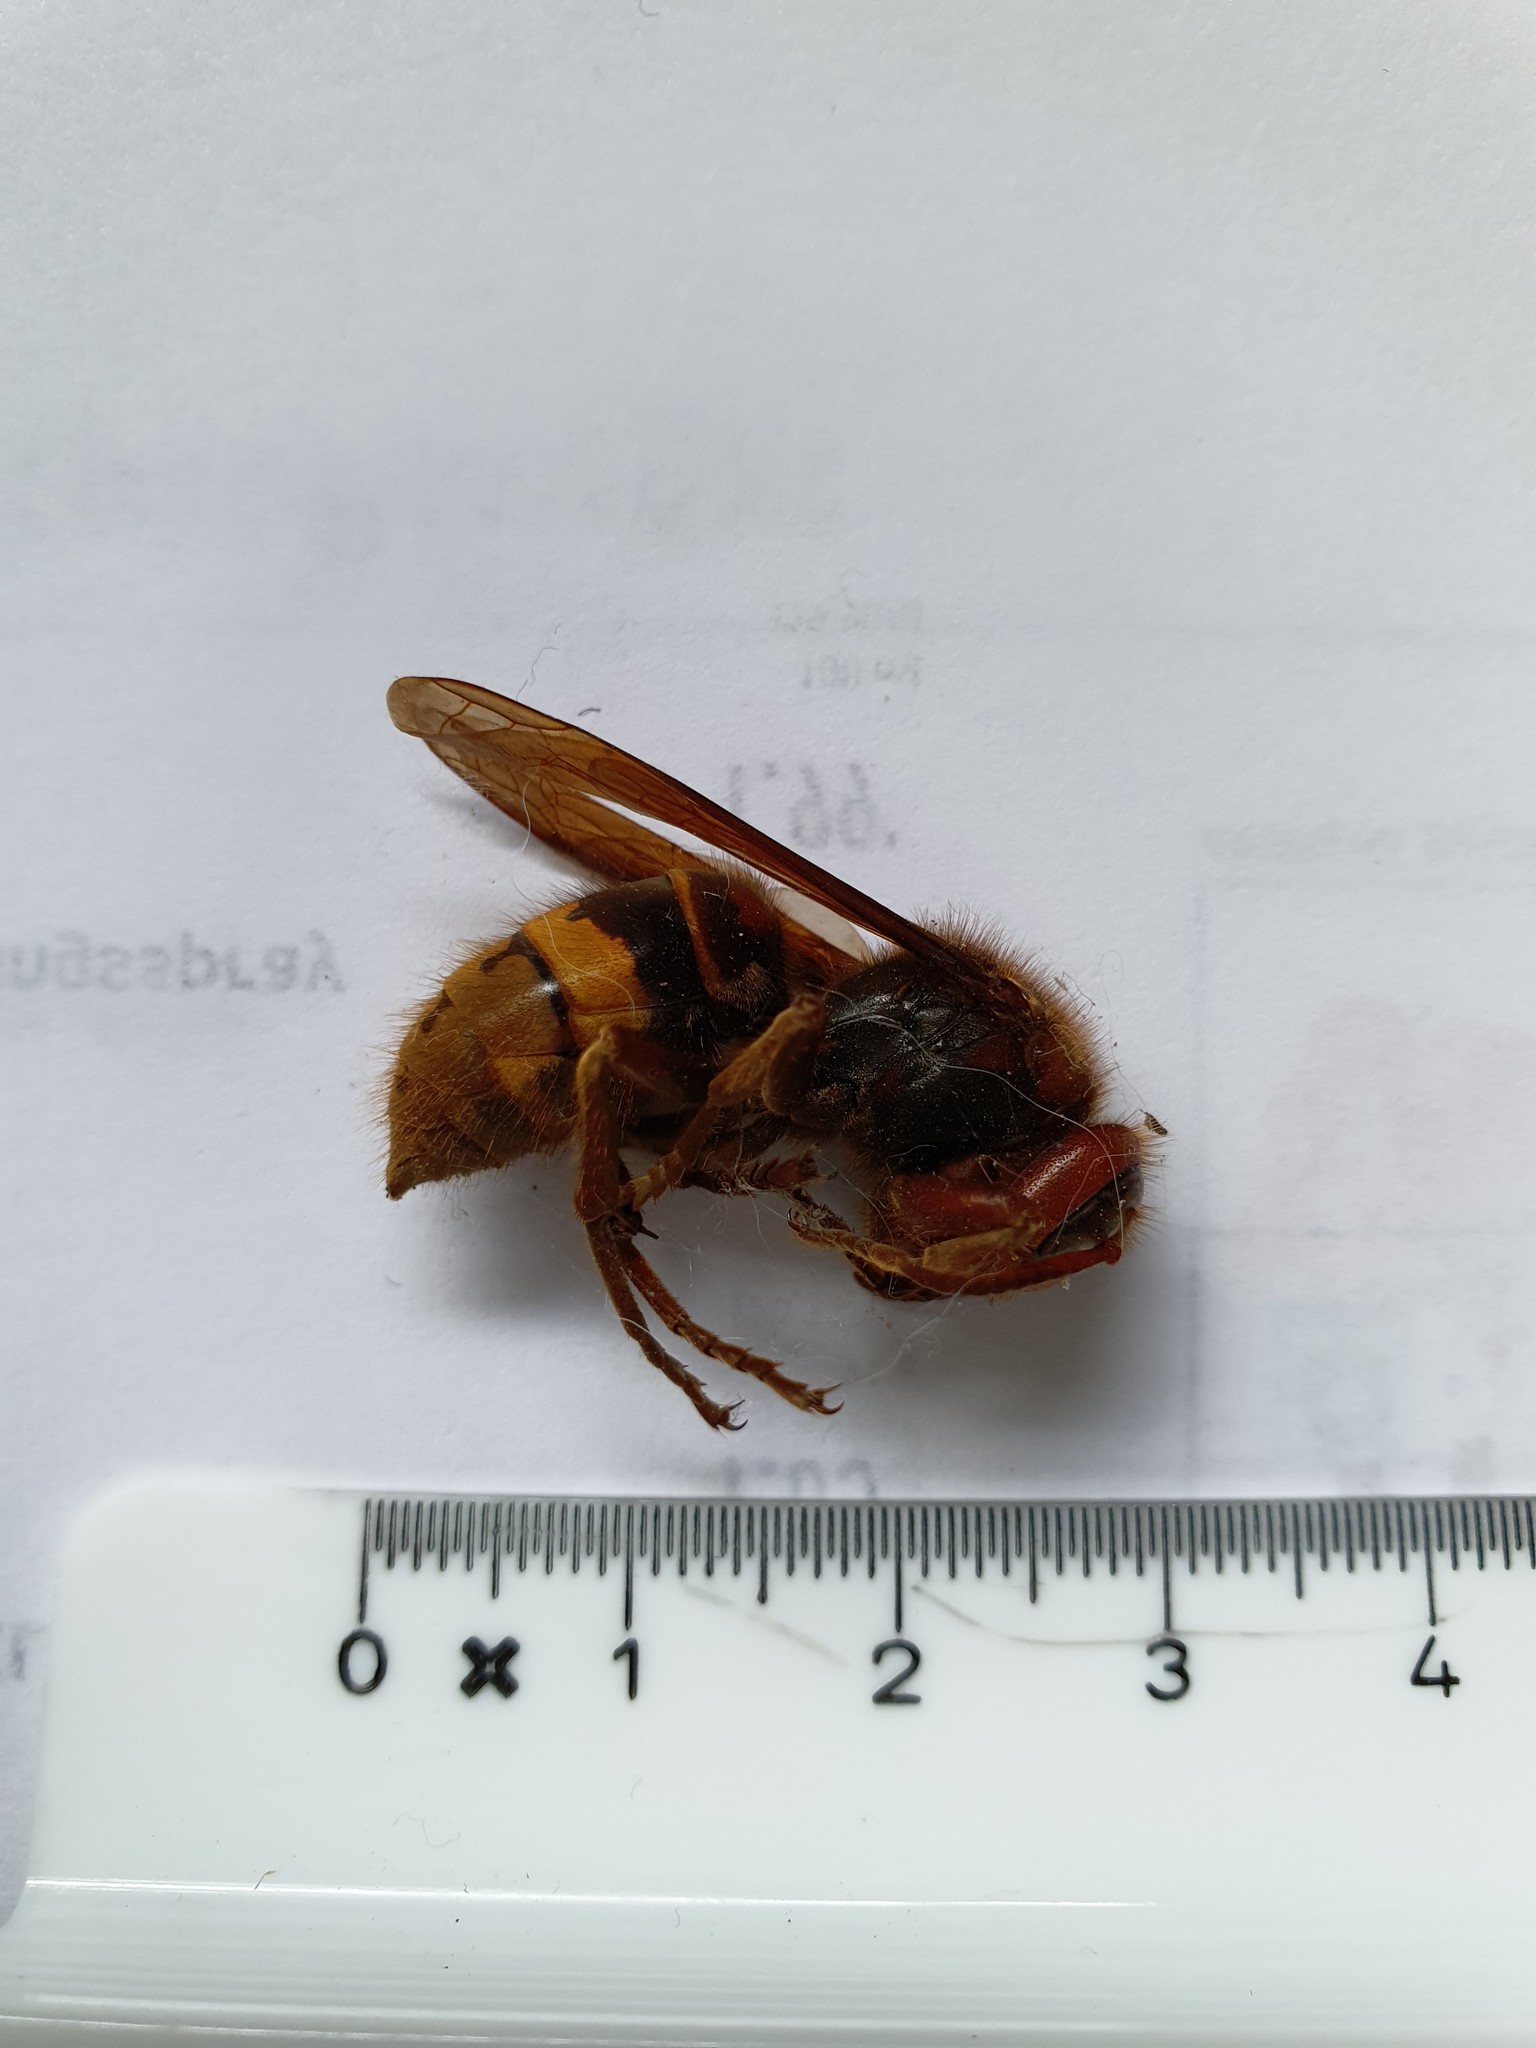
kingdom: Animalia
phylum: Arthropoda
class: Insecta
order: Hymenoptera
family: Vespidae
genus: Vespa
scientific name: Vespa crabro
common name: Hornet
